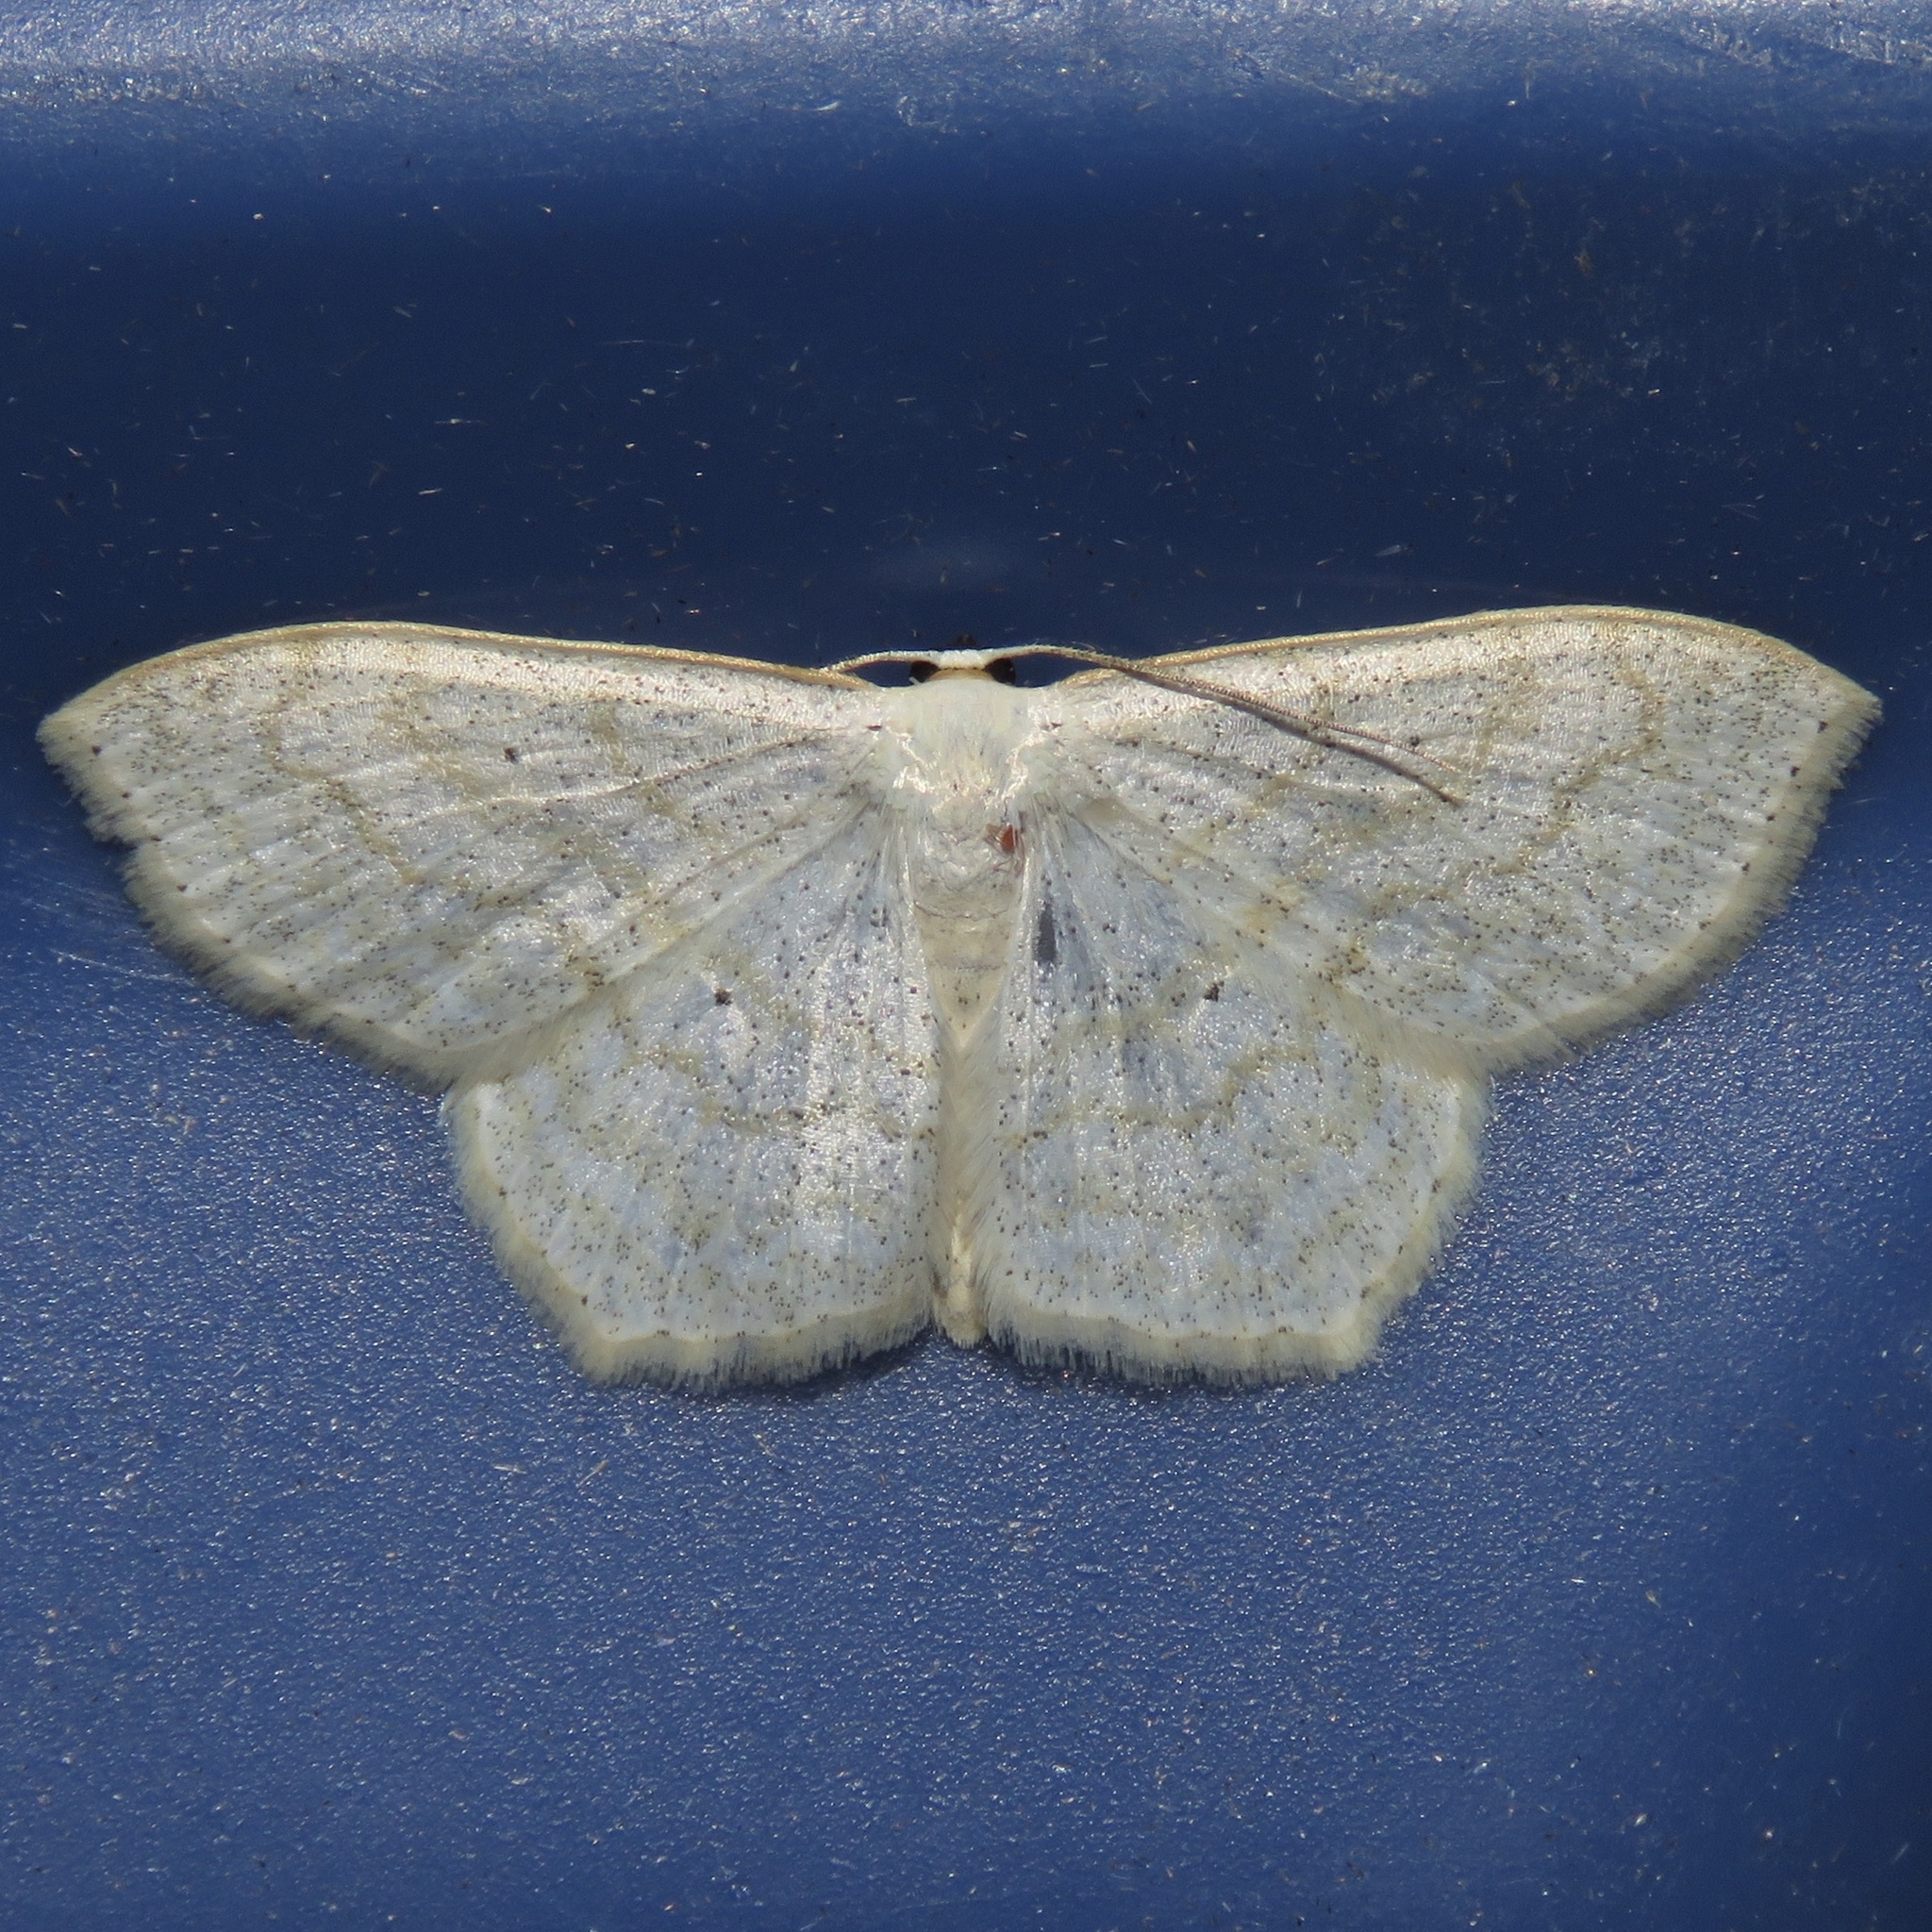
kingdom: Animalia
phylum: Arthropoda
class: Insecta
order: Lepidoptera
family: Geometridae
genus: Scopula
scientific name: Scopula limboundata
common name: Large lace border
